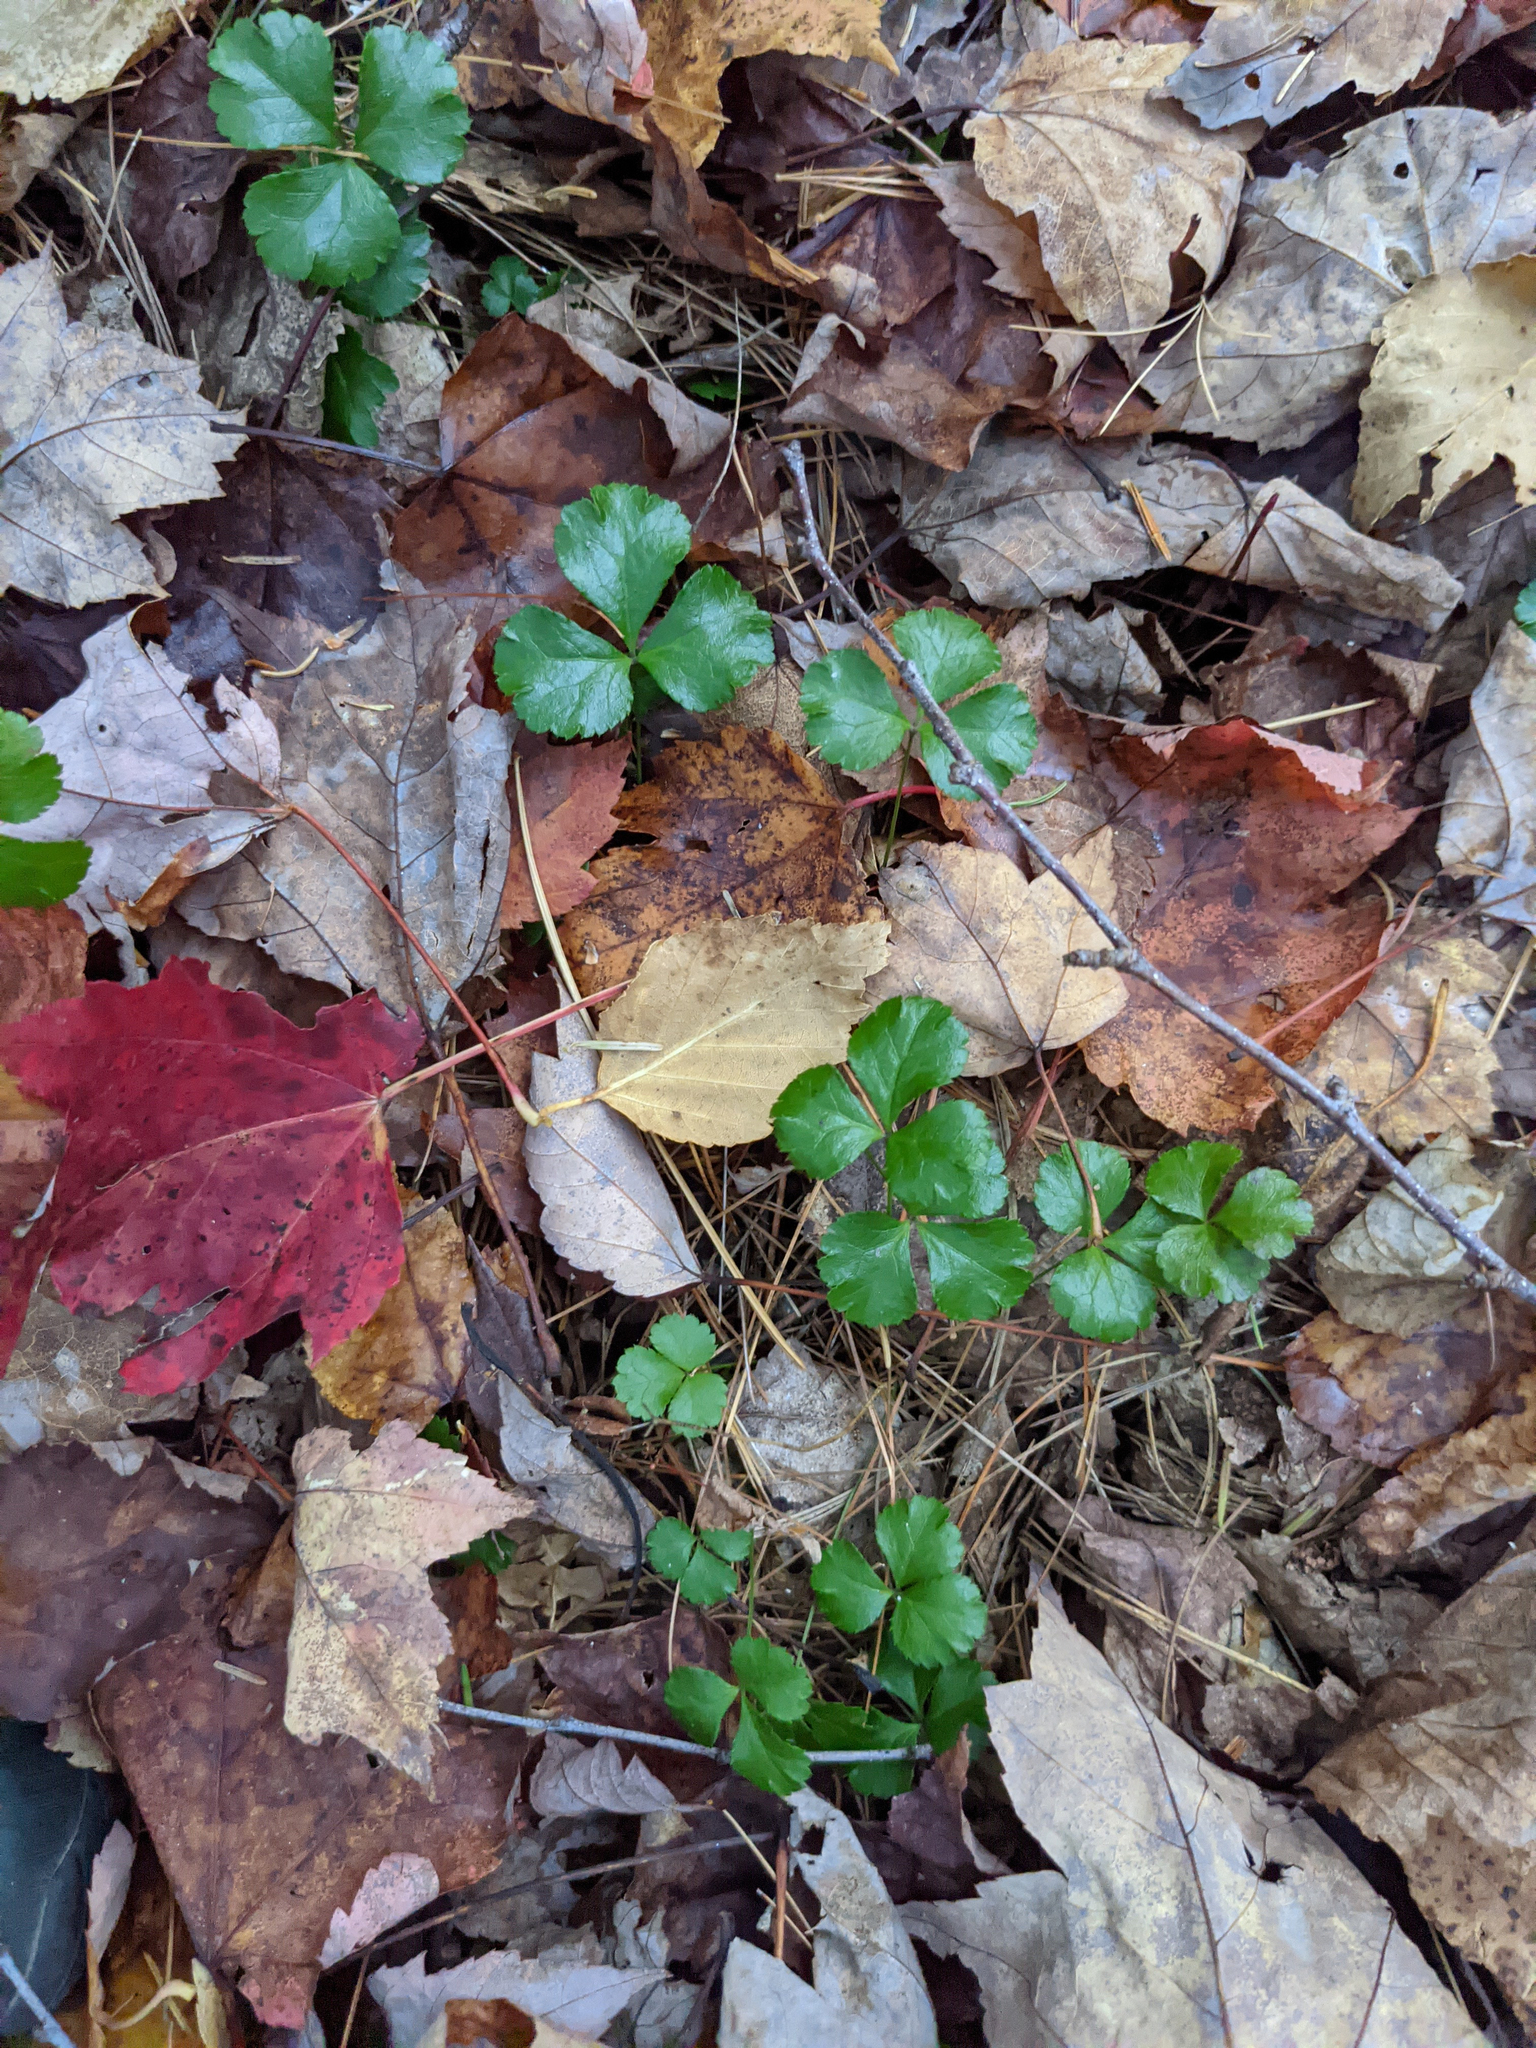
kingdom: Plantae
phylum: Tracheophyta
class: Magnoliopsida
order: Ranunculales
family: Ranunculaceae
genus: Coptis
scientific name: Coptis trifolia
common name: Canker-root
